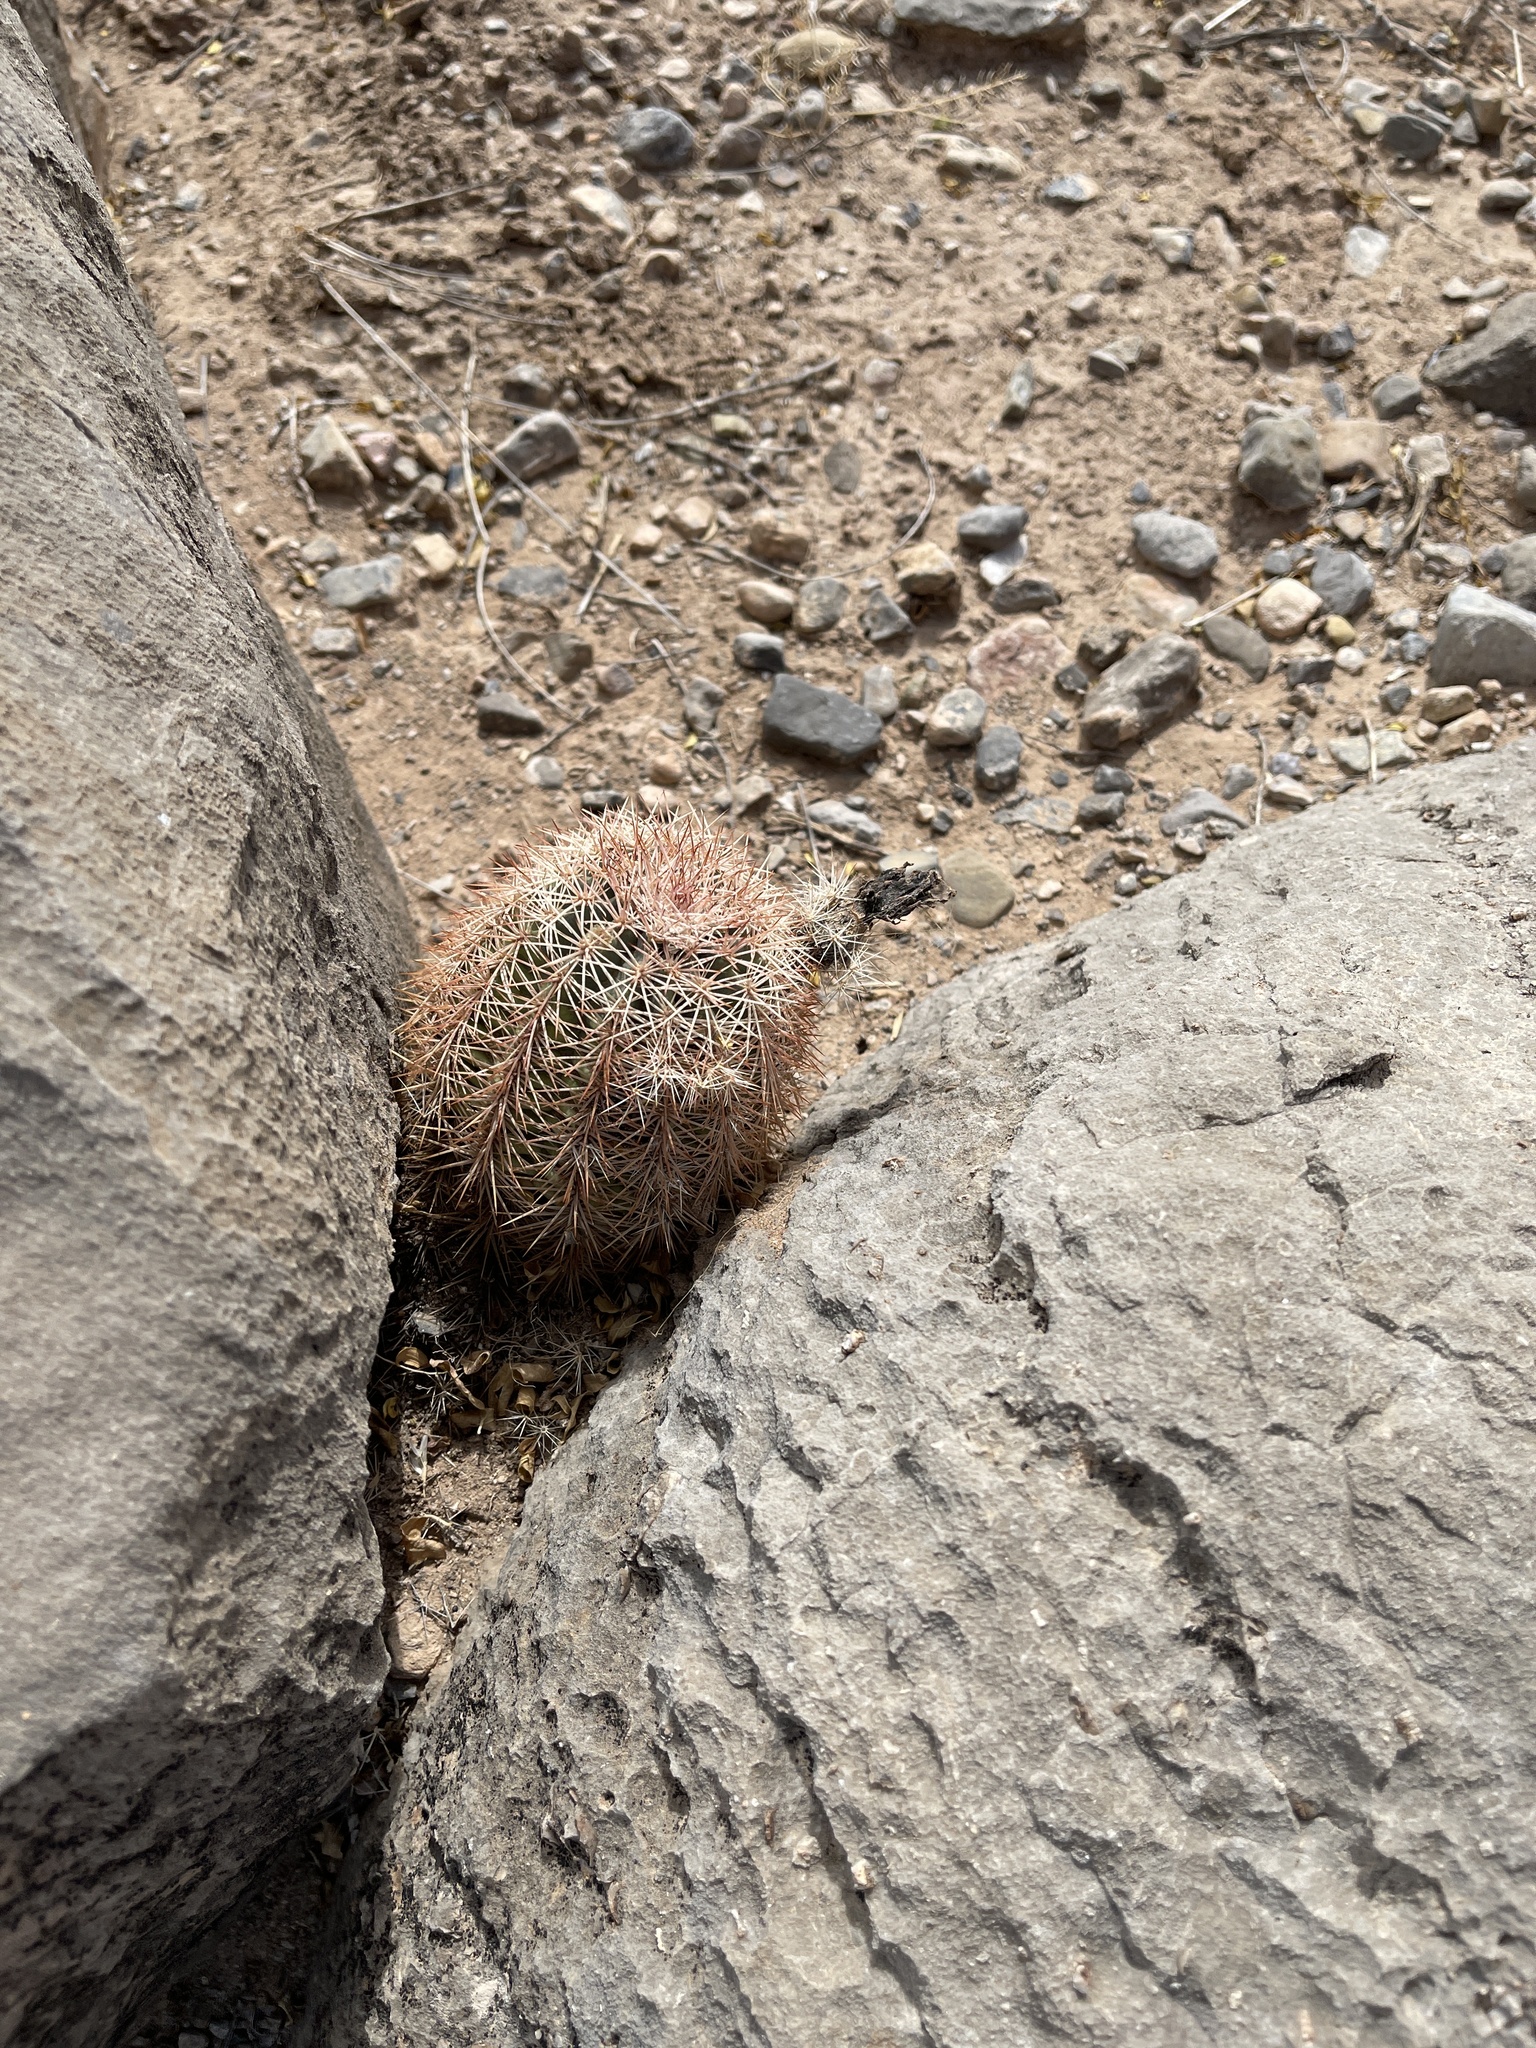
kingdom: Plantae
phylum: Tracheophyta
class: Magnoliopsida
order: Caryophyllales
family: Cactaceae
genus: Echinocereus
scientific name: Echinocereus dasyacanthus
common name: Spiny hedgehog cactus
